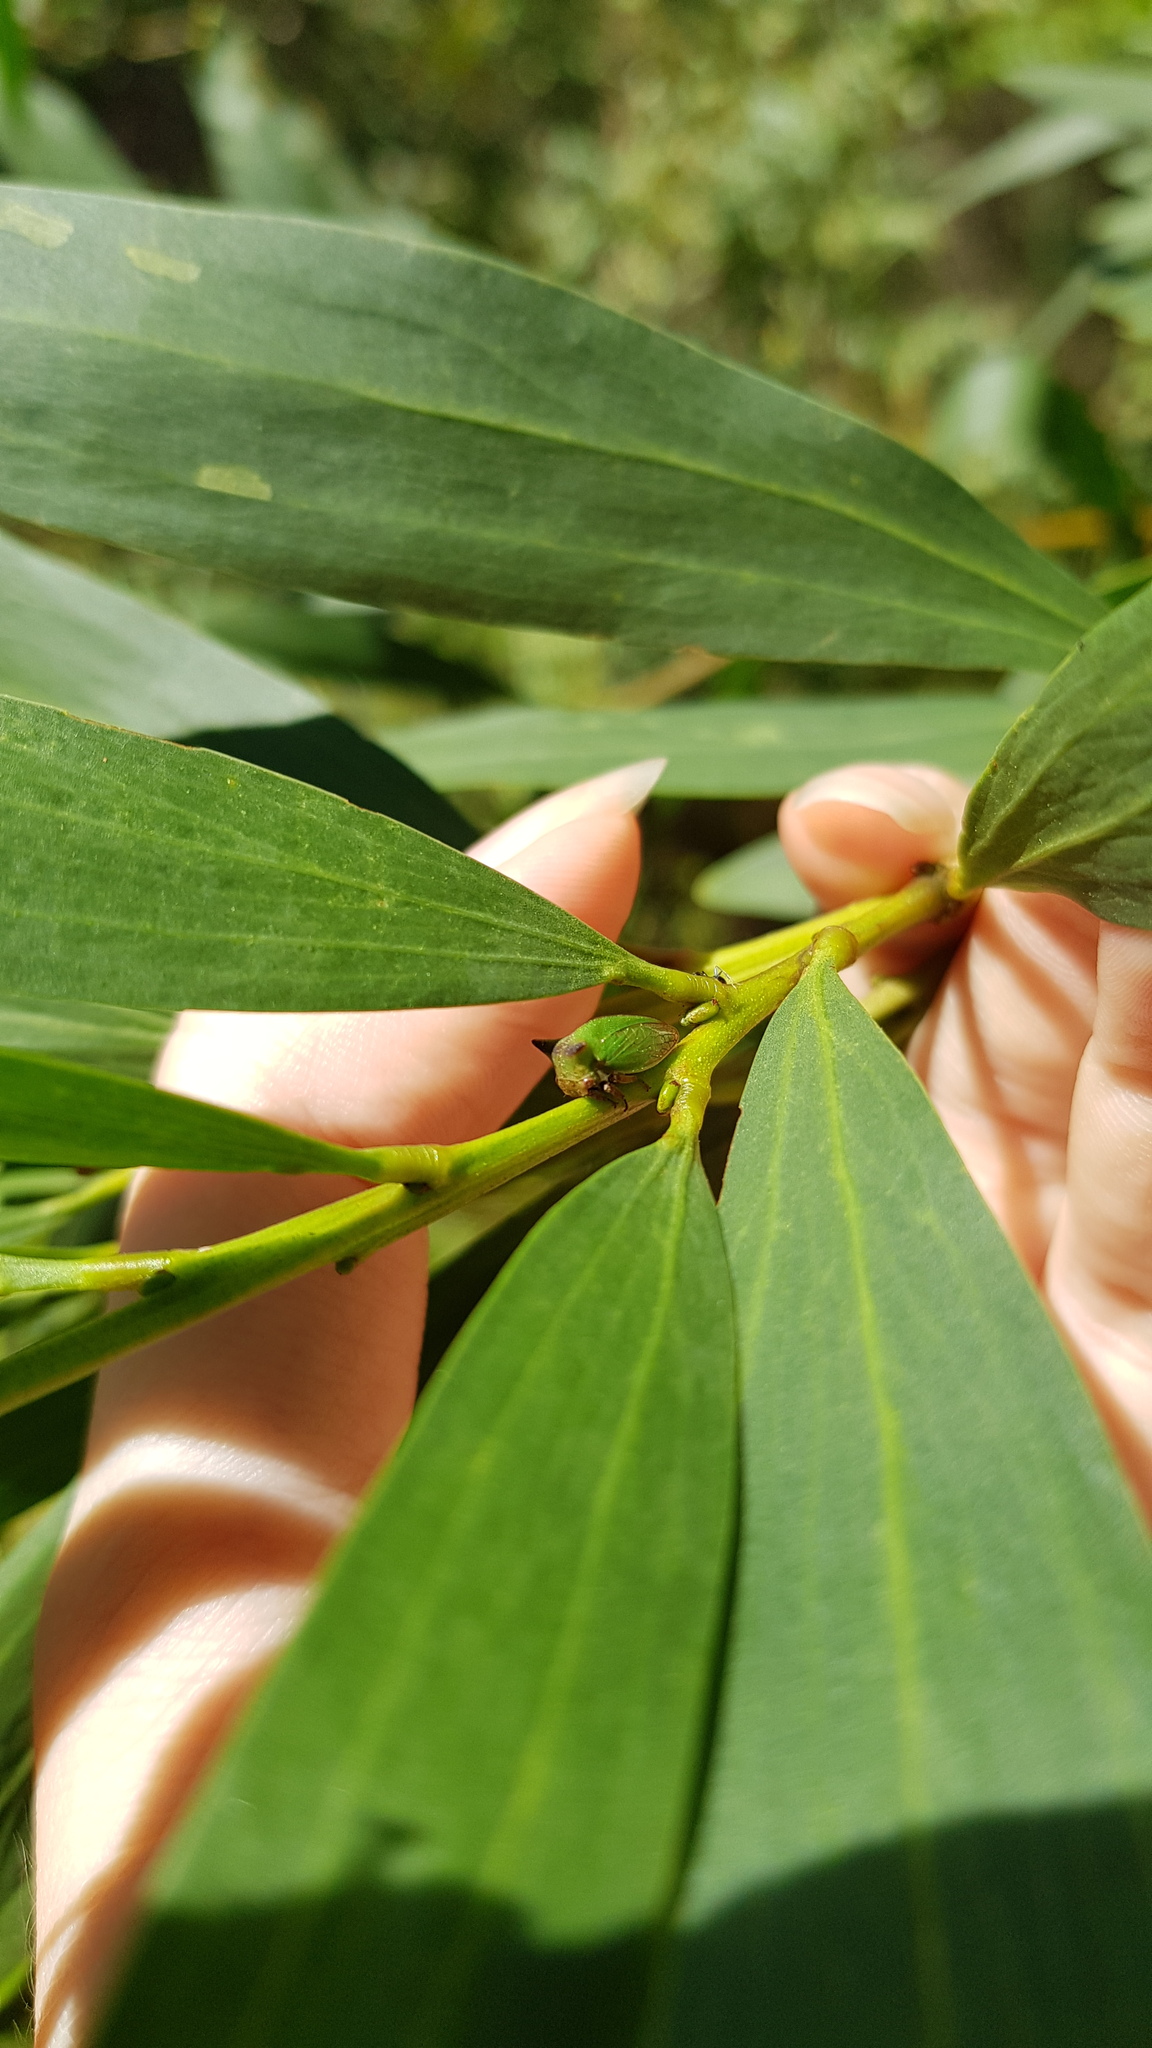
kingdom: Animalia
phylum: Arthropoda
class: Insecta
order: Hemiptera
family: Membracidae
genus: Sextius
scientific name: Sextius virescens
